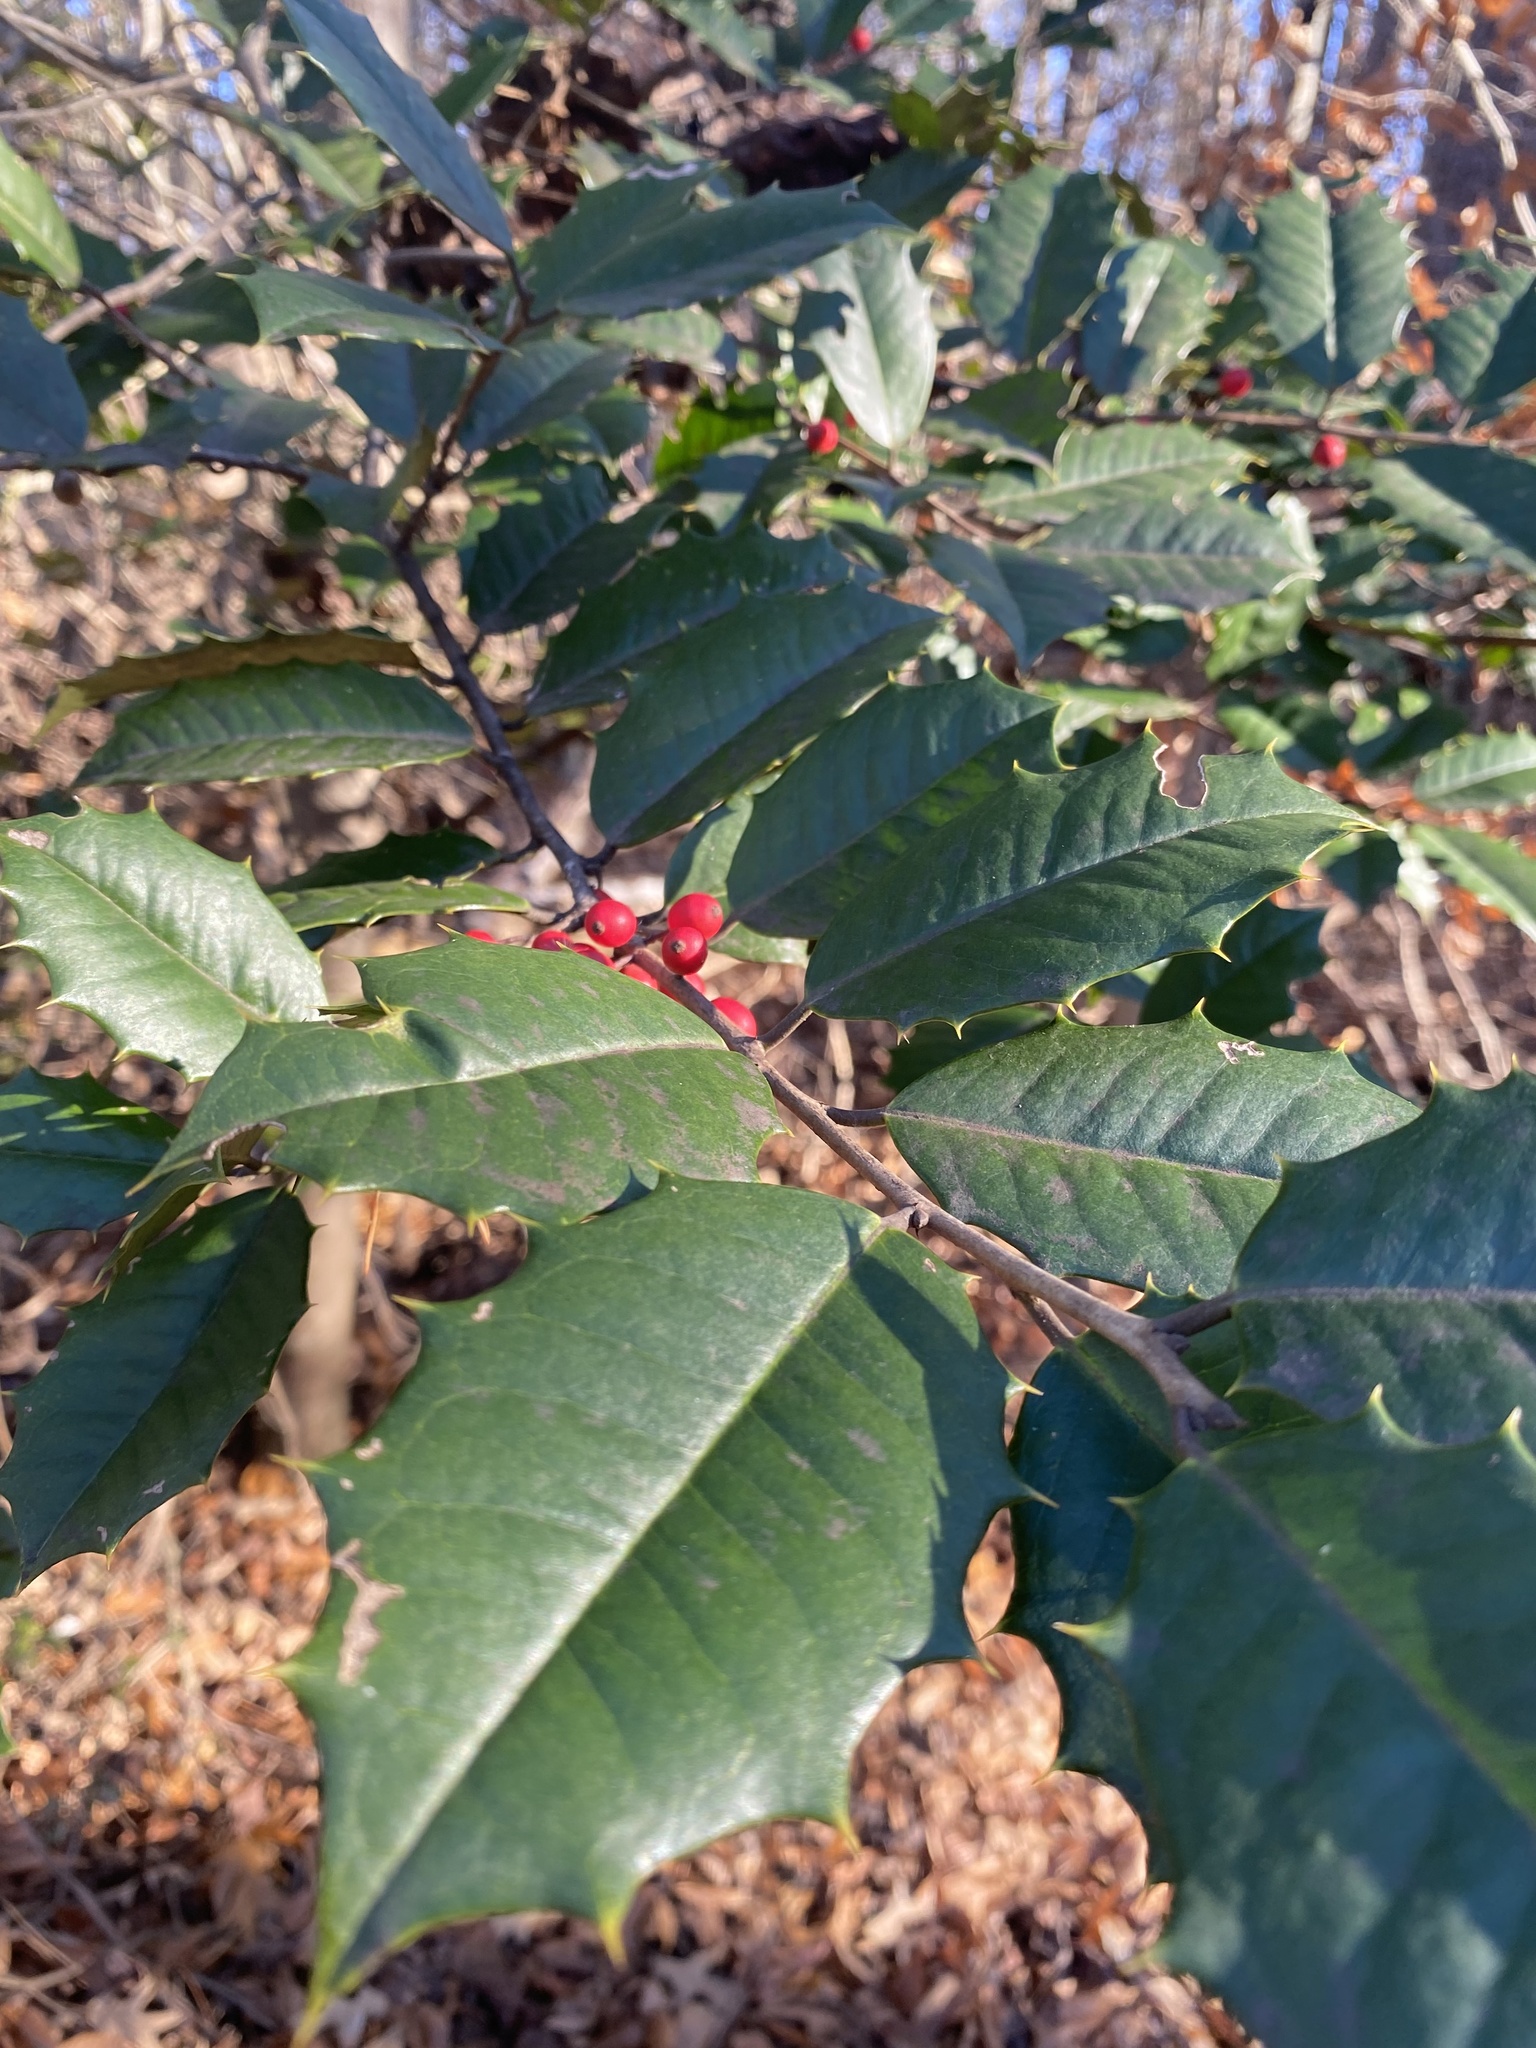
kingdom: Plantae
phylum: Tracheophyta
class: Magnoliopsida
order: Aquifoliales
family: Aquifoliaceae
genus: Ilex
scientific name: Ilex opaca
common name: American holly
